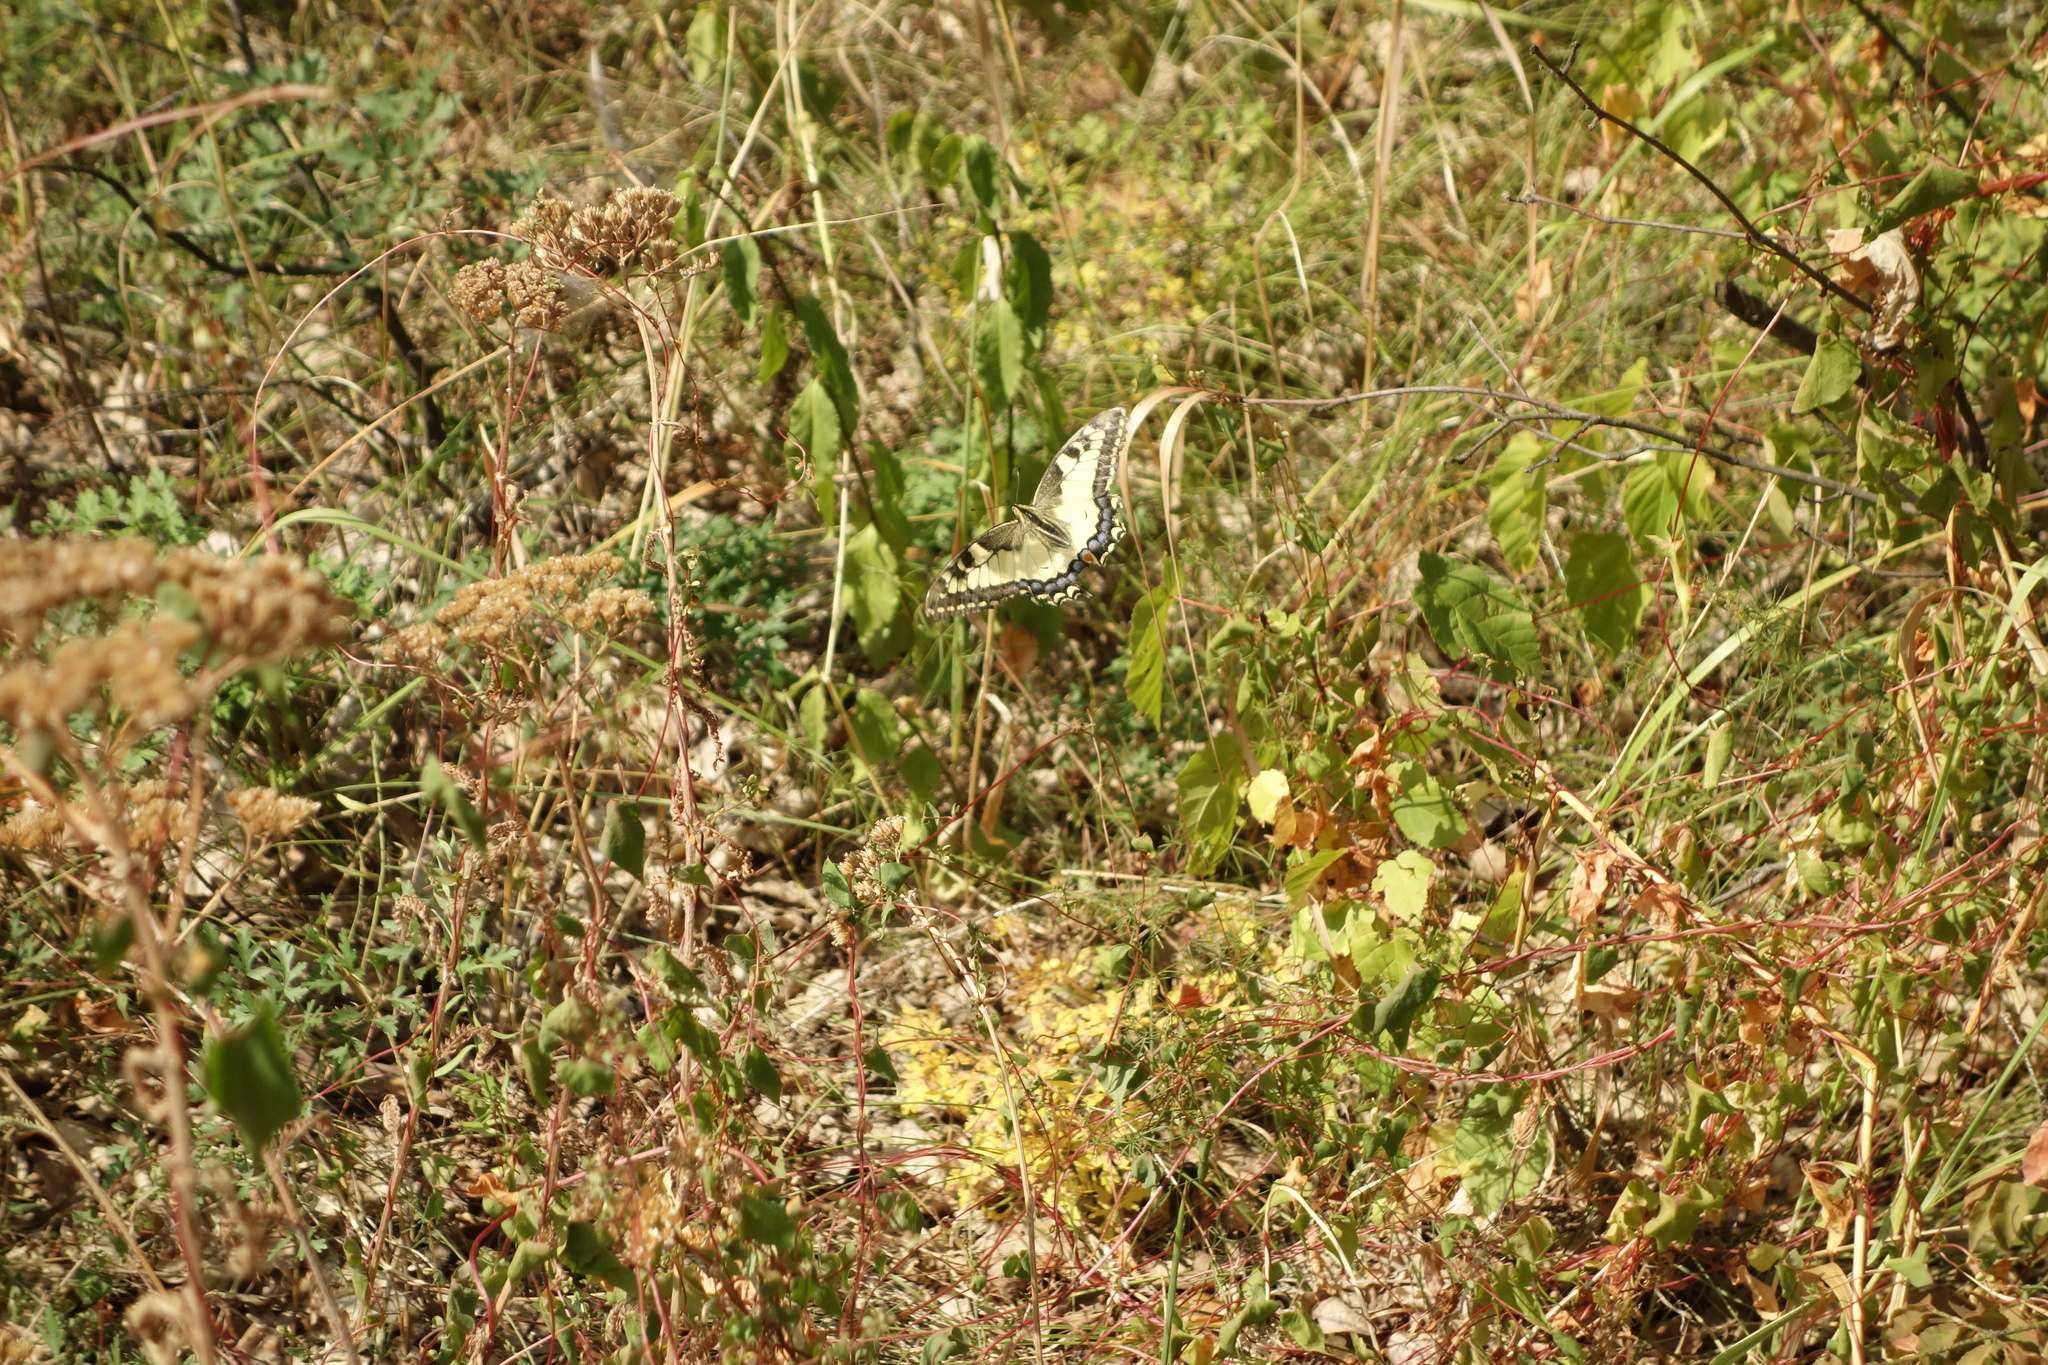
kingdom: Animalia
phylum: Arthropoda
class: Insecta
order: Lepidoptera
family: Papilionidae
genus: Papilio
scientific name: Papilio machaon
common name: Swallowtail
